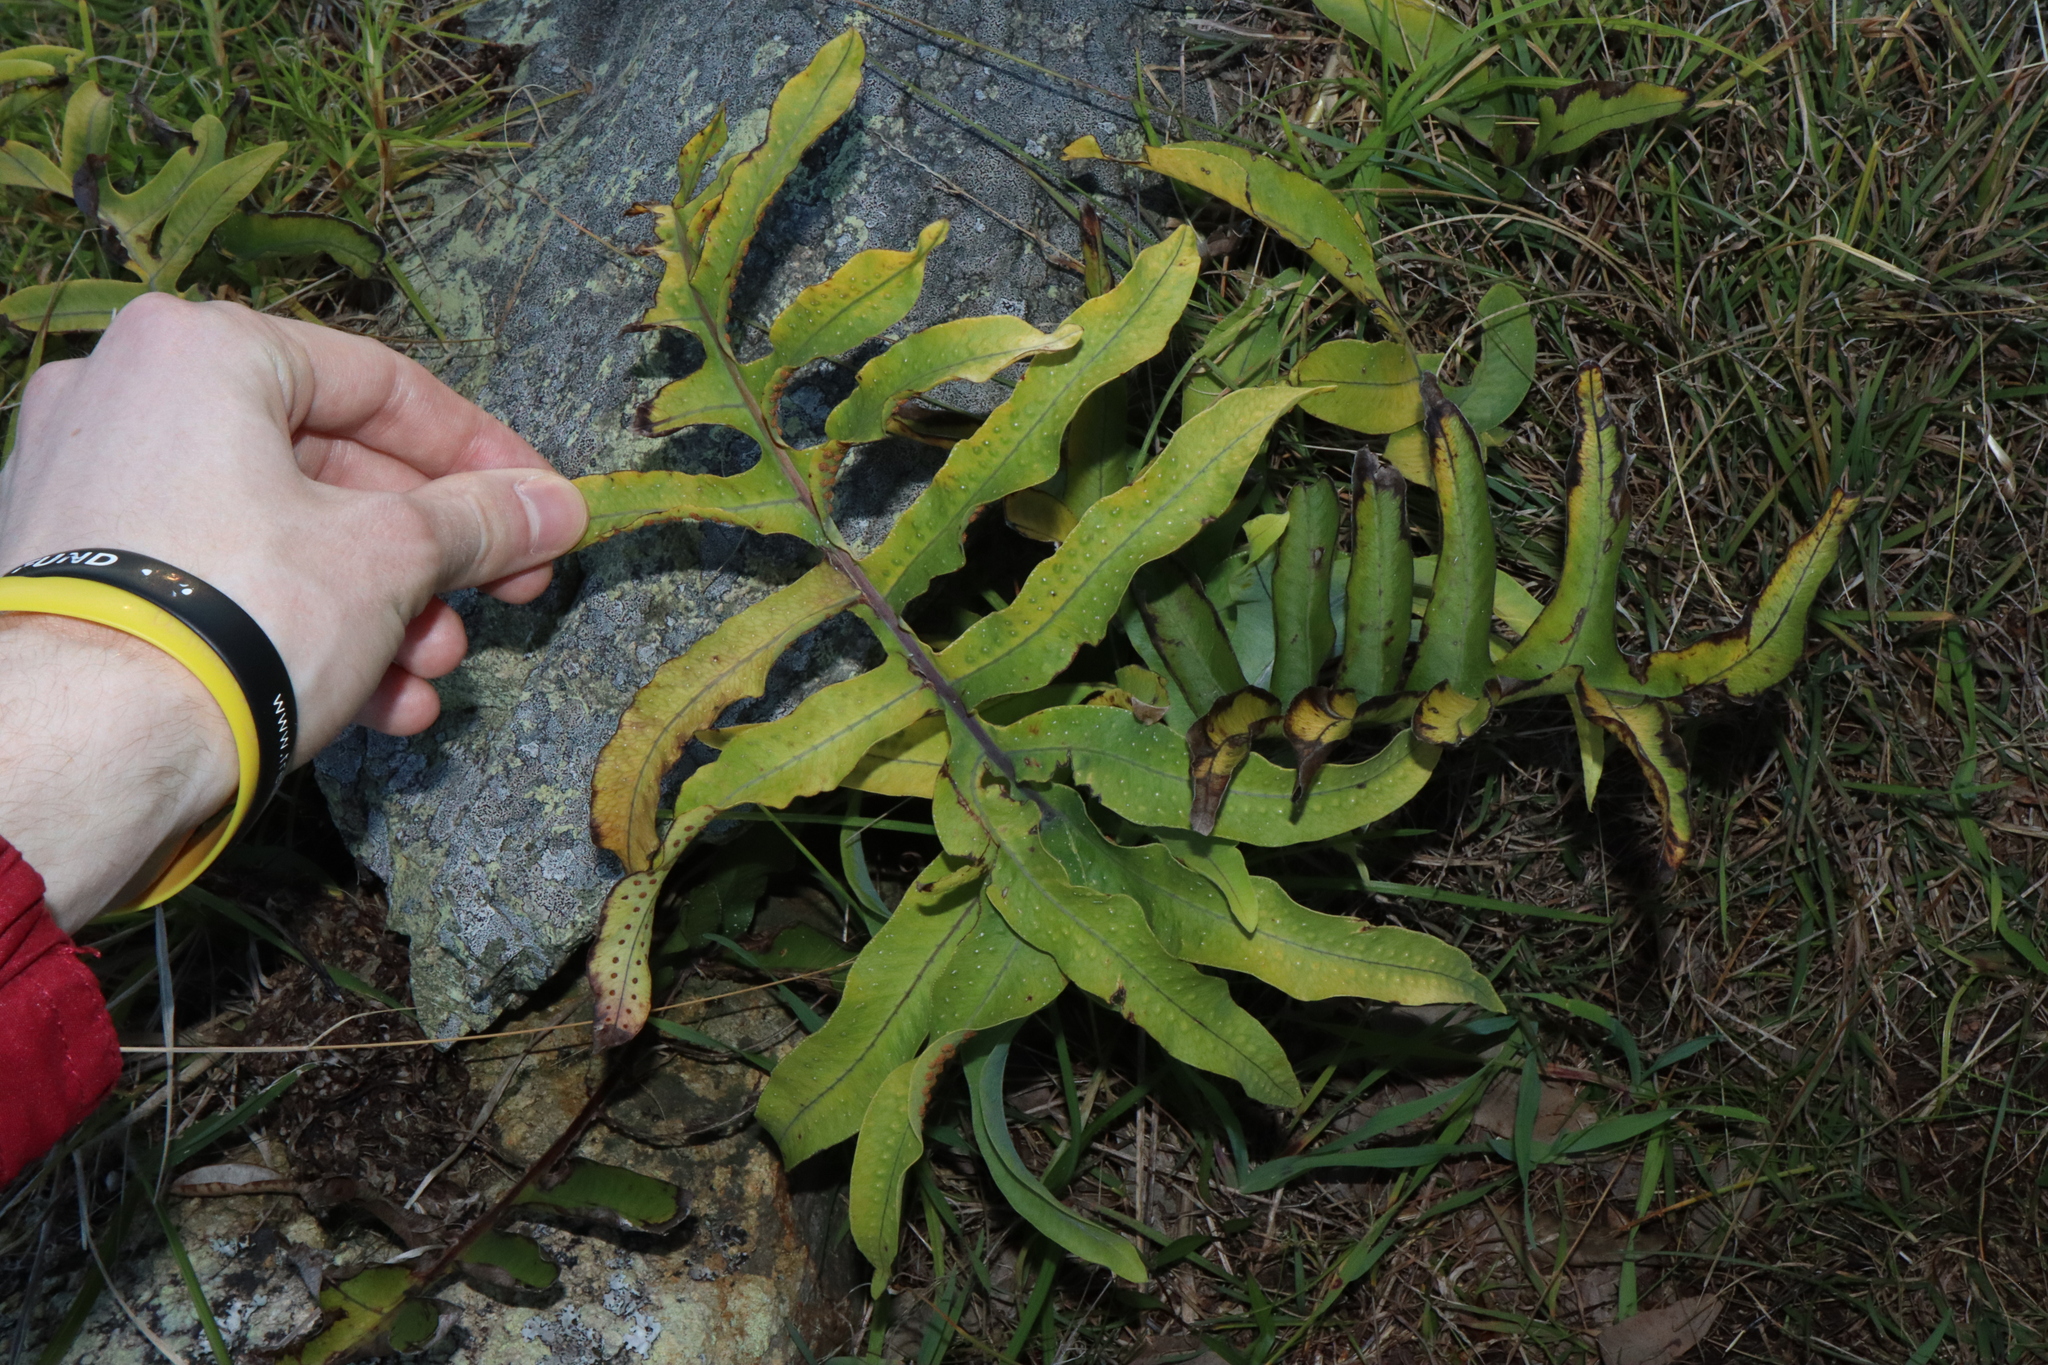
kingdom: Plantae
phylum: Tracheophyta
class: Polypodiopsida
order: Polypodiales
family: Polypodiaceae
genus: Phlebodium
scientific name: Phlebodium aureum
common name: Gold-foot fern
